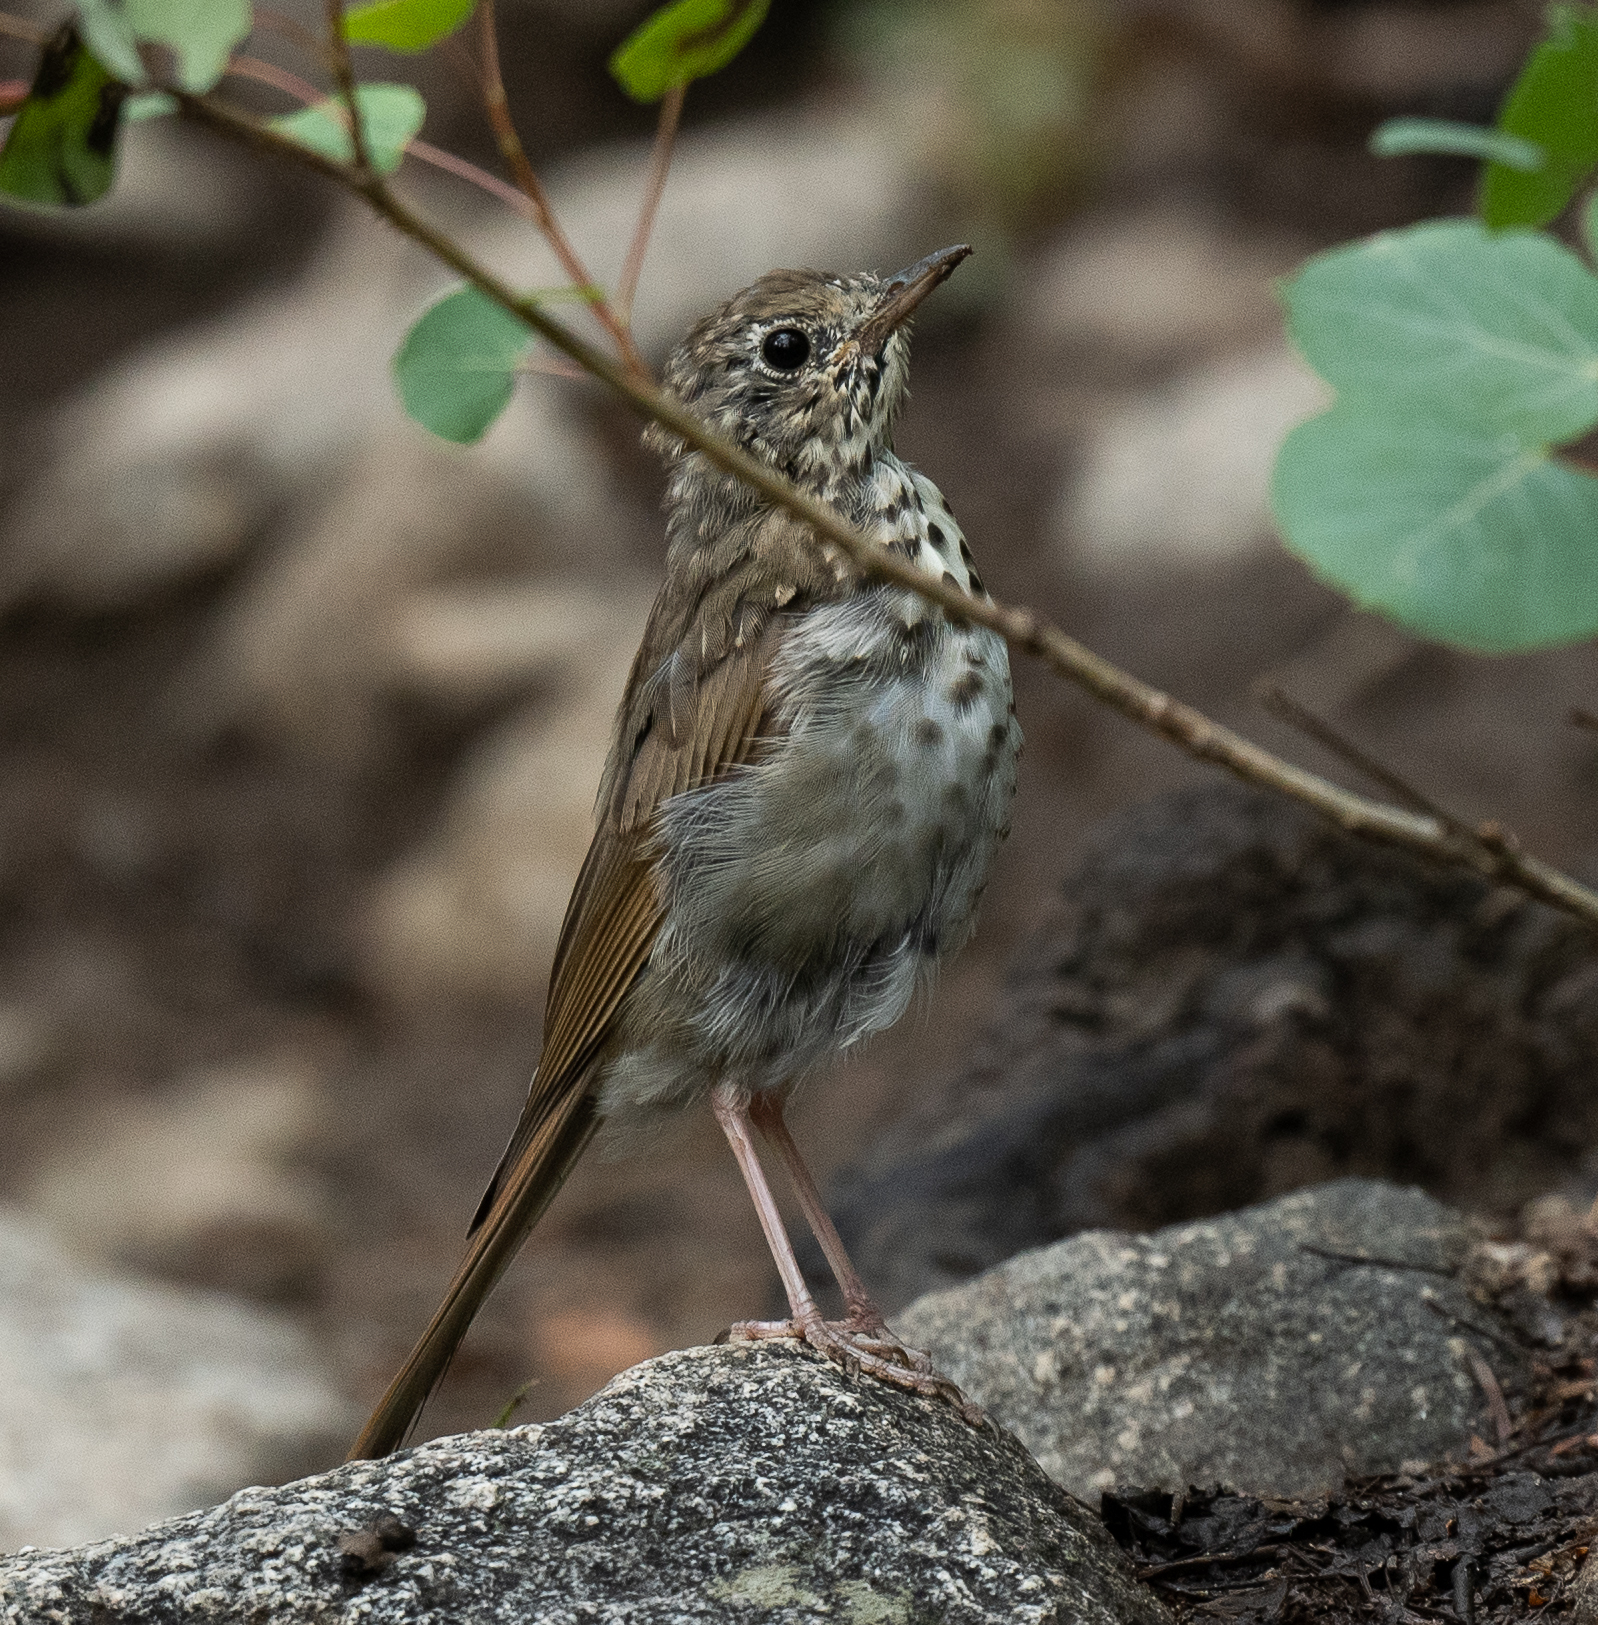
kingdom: Animalia
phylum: Chordata
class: Aves
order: Passeriformes
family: Turdidae
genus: Catharus
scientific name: Catharus guttatus
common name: Hermit thrush
